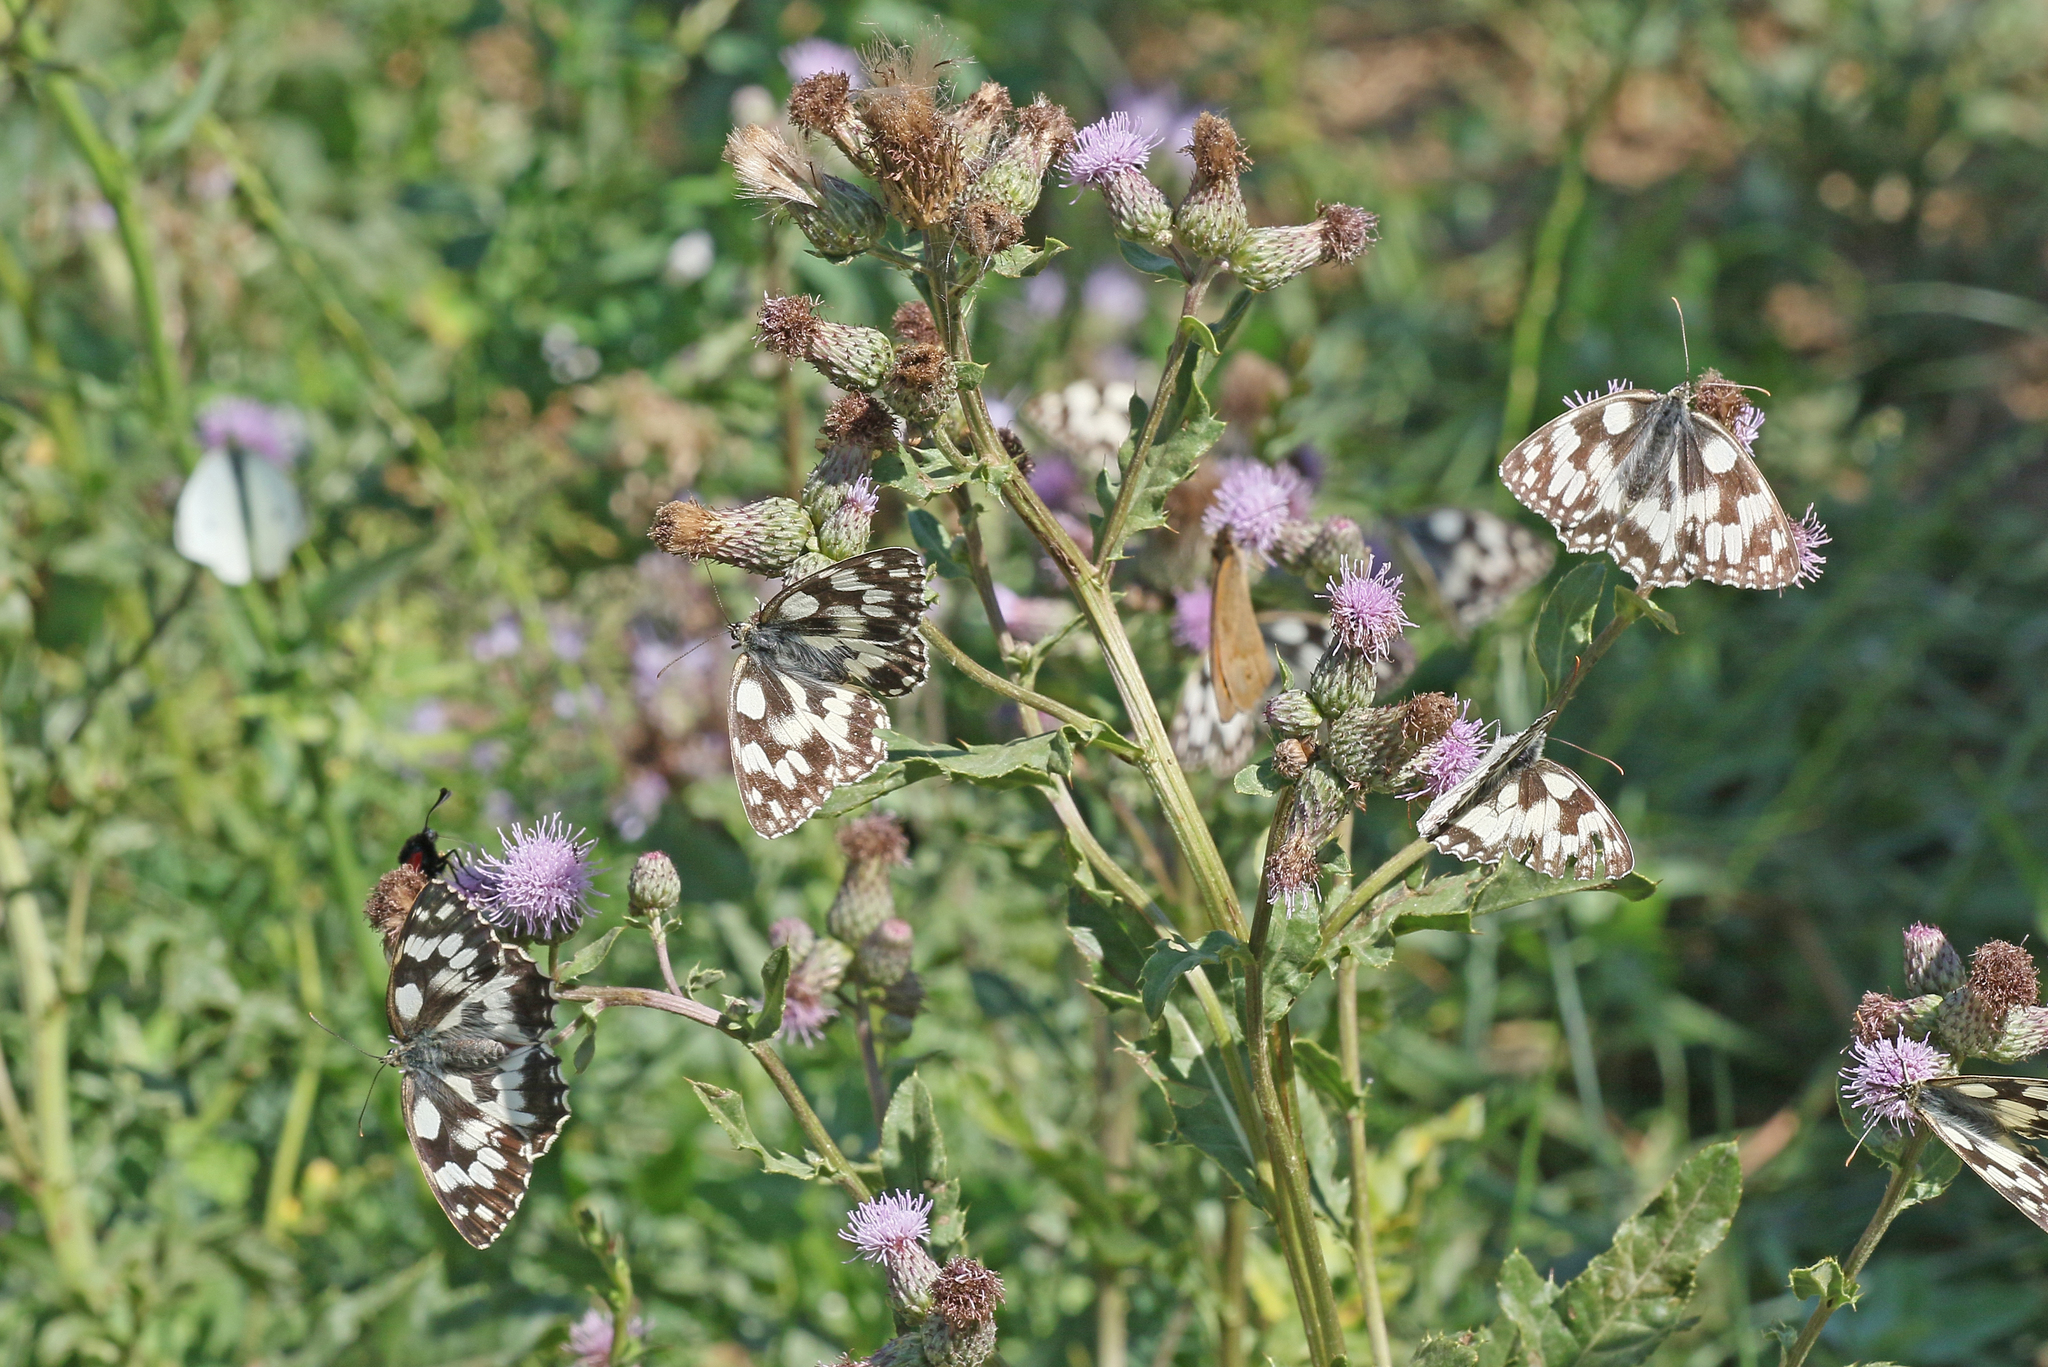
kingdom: Animalia
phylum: Arthropoda
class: Insecta
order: Lepidoptera
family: Nymphalidae
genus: Melanargia
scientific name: Melanargia galathea
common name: Marbled white
